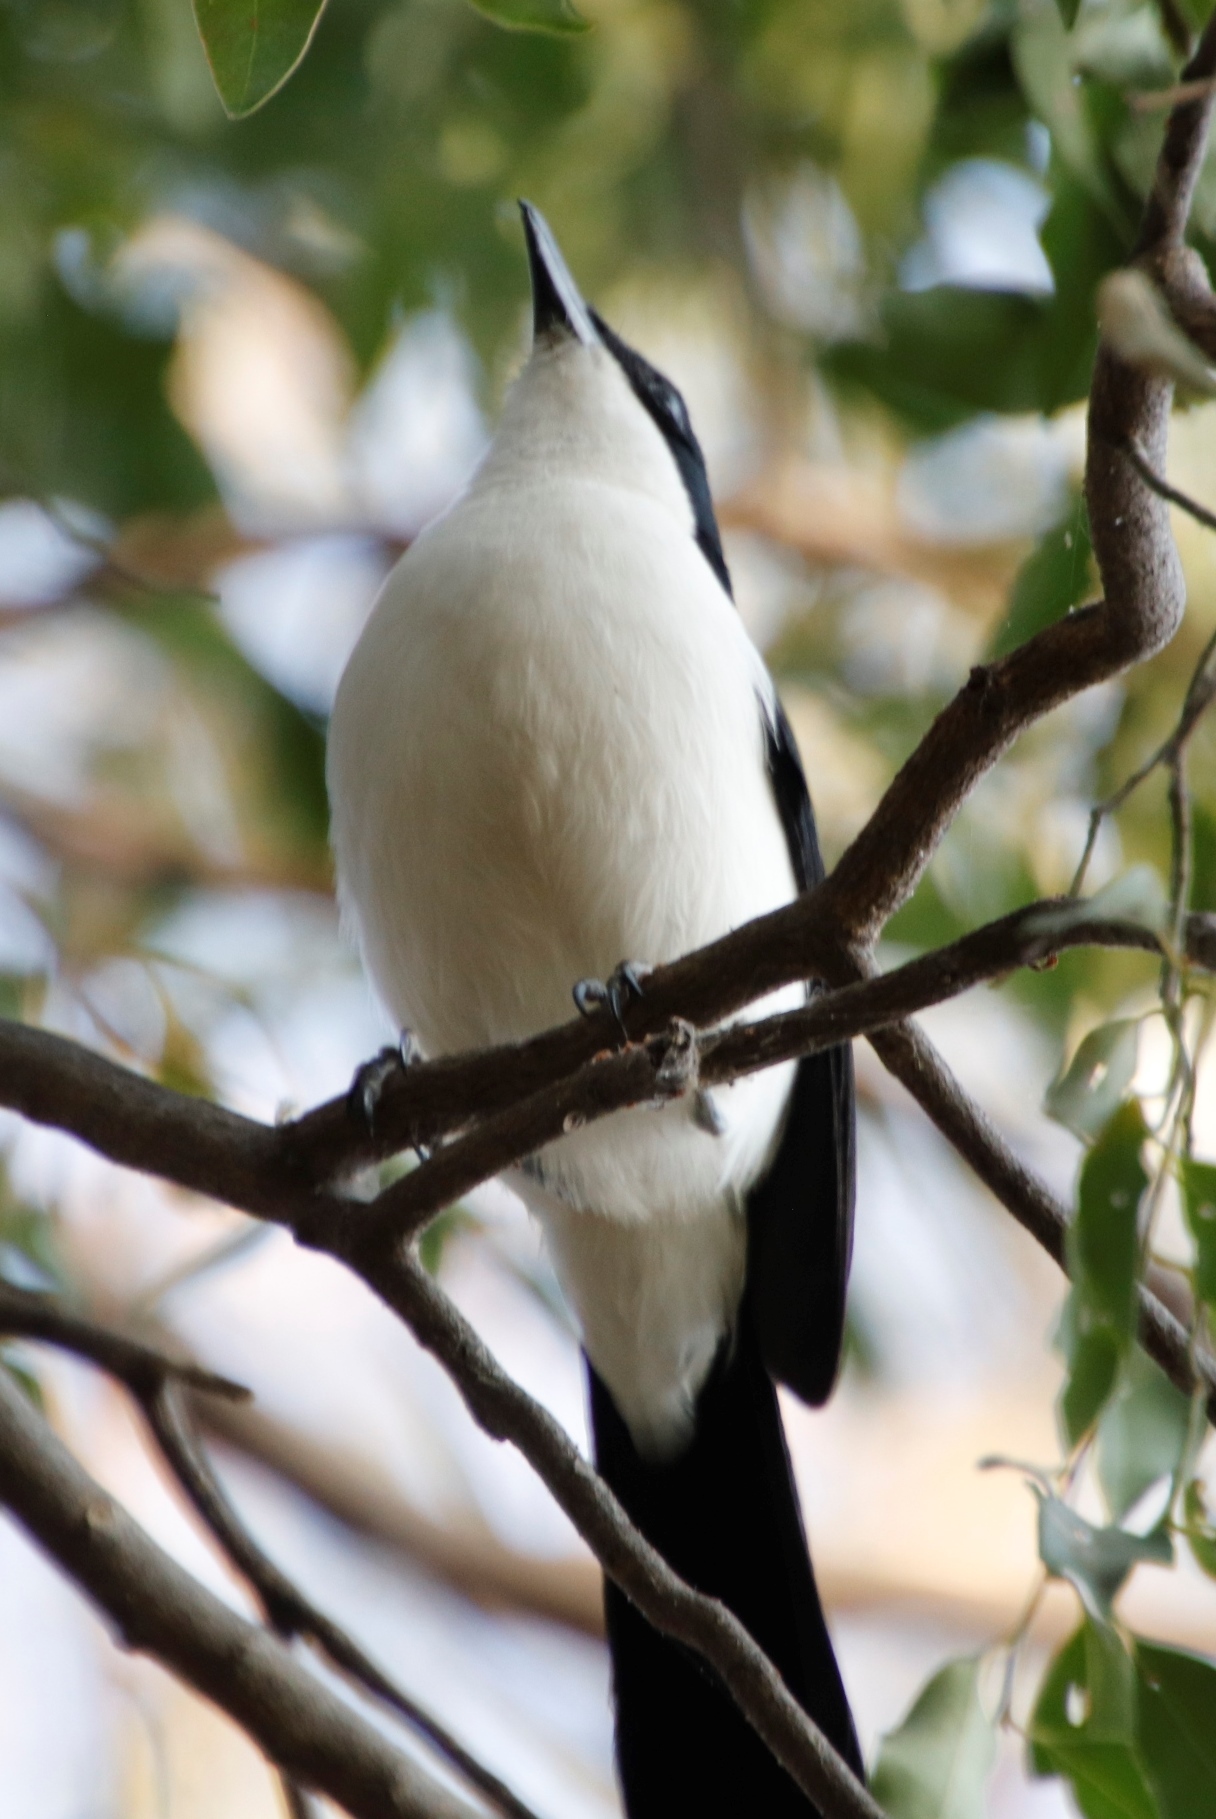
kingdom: Animalia
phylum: Chordata
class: Aves
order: Passeriformes
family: Malaconotidae
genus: Laniarius
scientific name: Laniarius bicolor
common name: Swamp boubou
